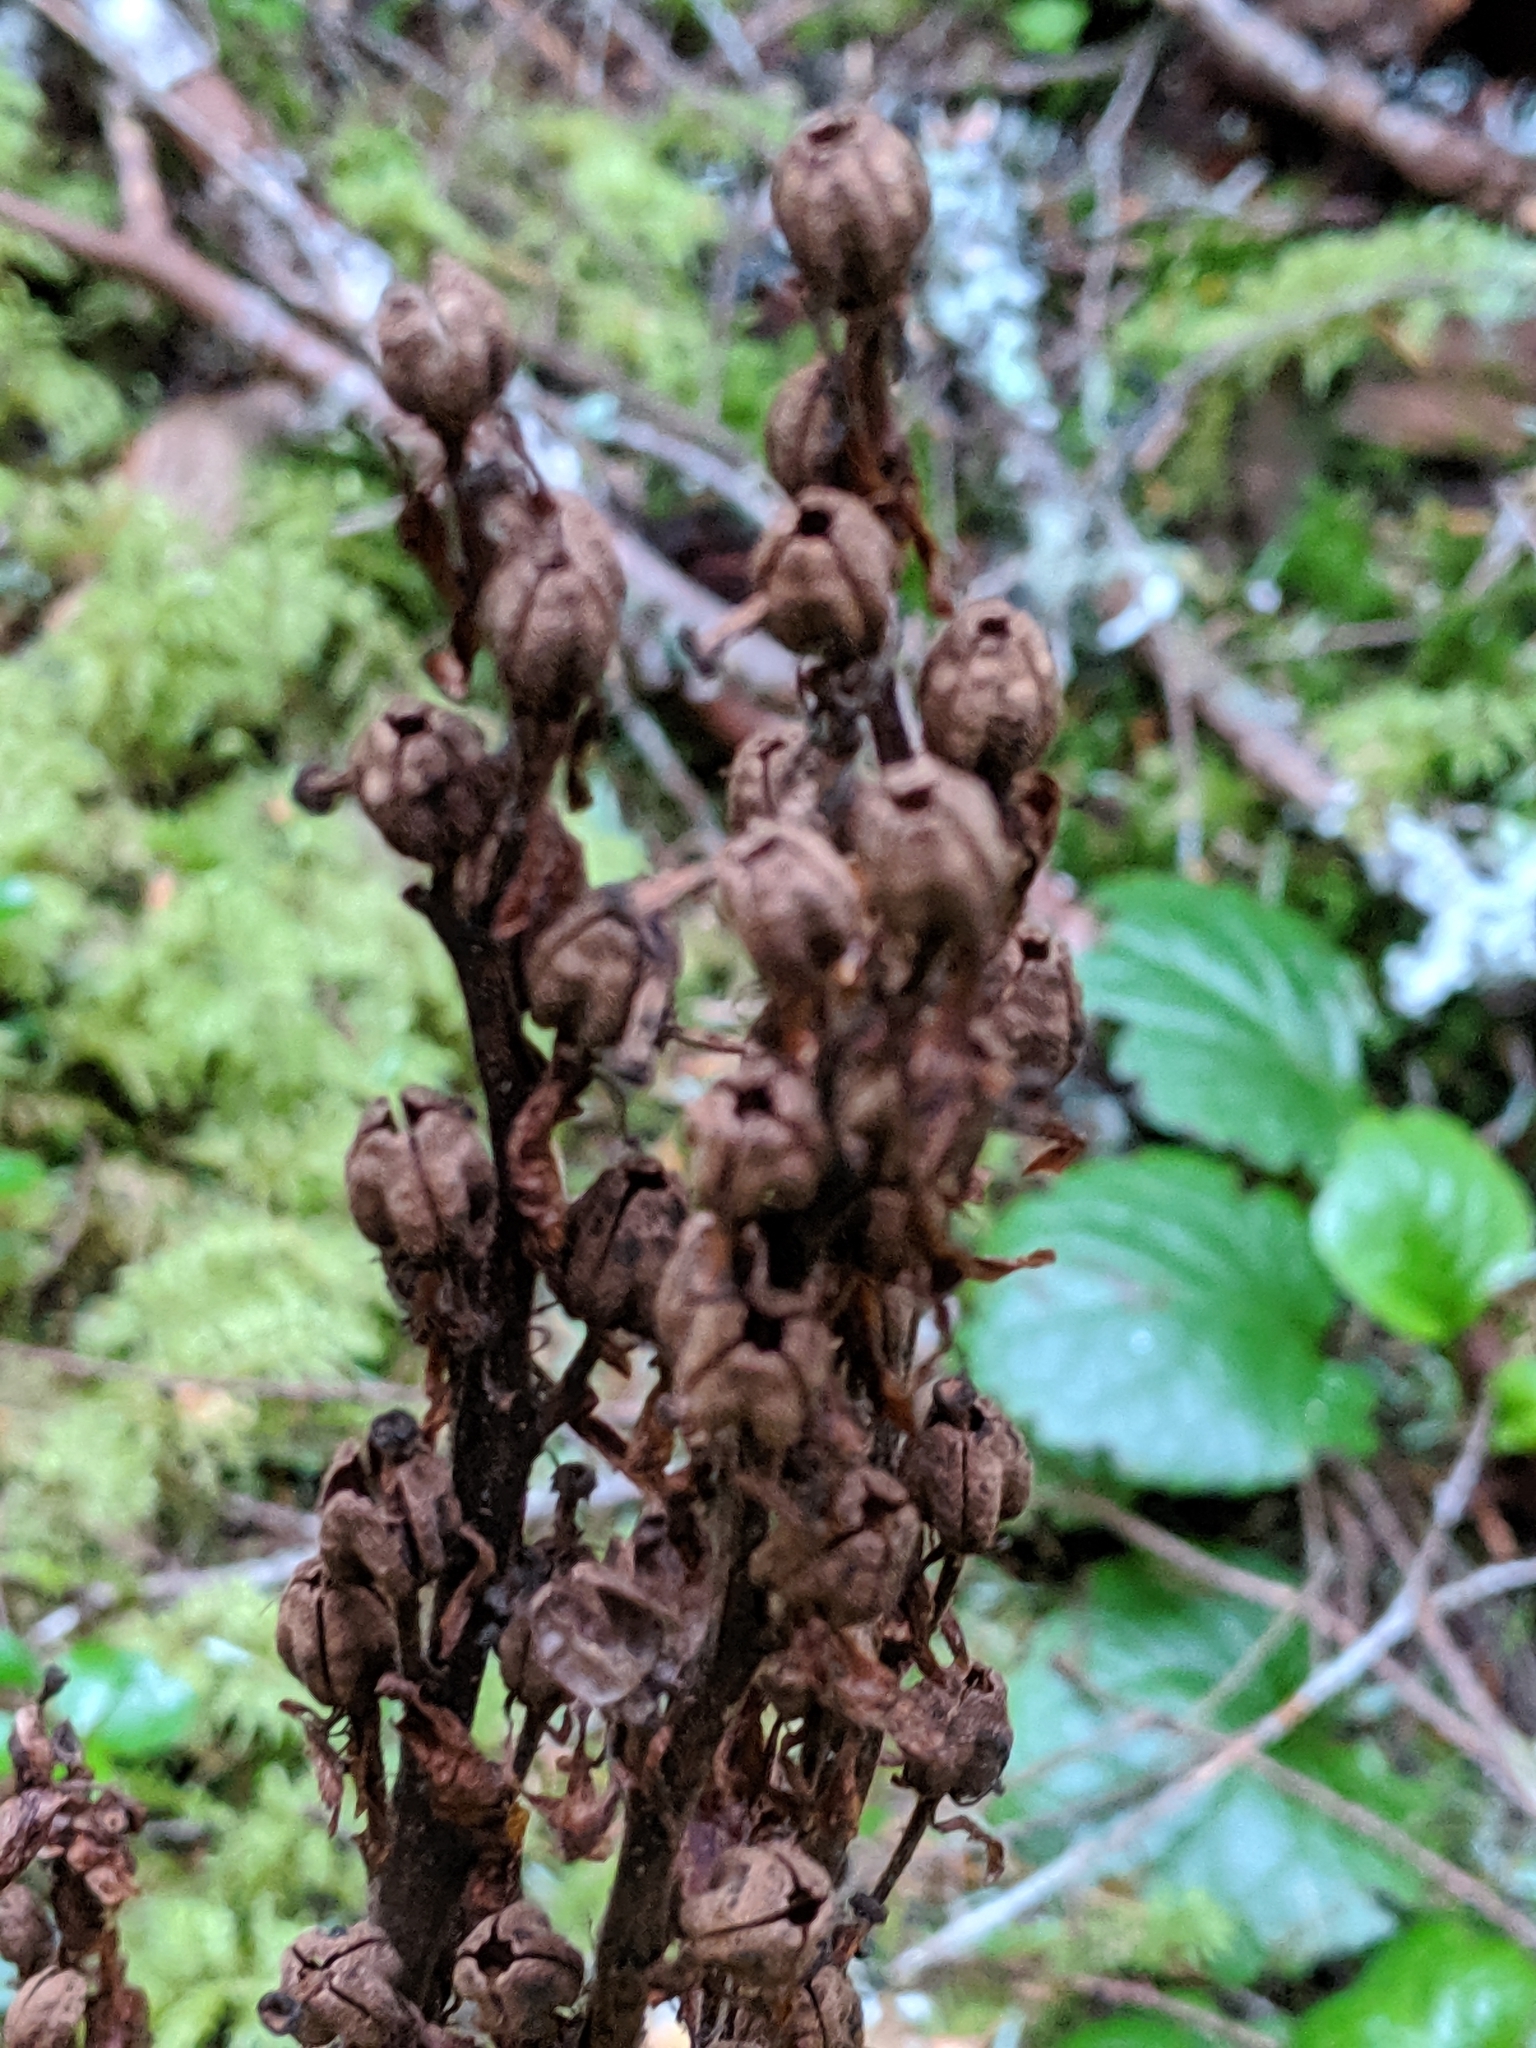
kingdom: Plantae
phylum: Tracheophyta
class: Magnoliopsida
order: Ericales
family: Ericaceae
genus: Hypopitys
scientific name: Hypopitys monotropa
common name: Yellow bird's-nest
